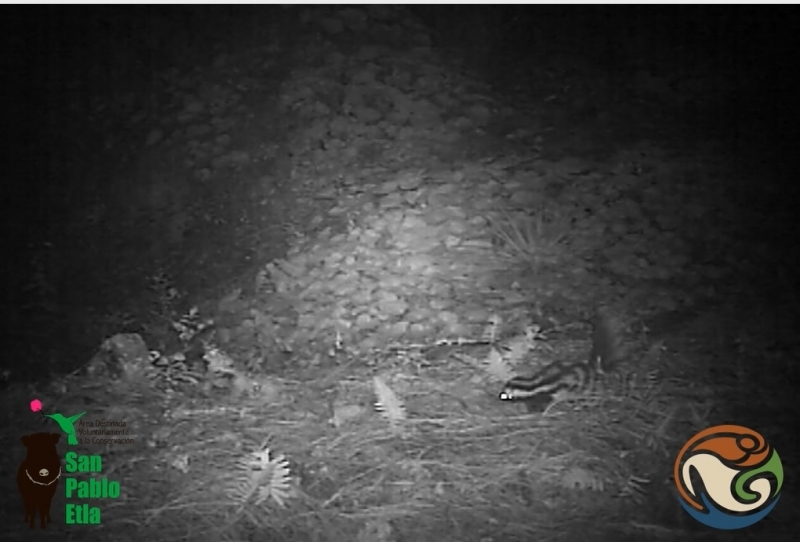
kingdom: Animalia
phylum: Chordata
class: Mammalia
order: Carnivora
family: Mephitidae
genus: Spilogale
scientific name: Spilogale angustifrons
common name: Southern spotted skunk
